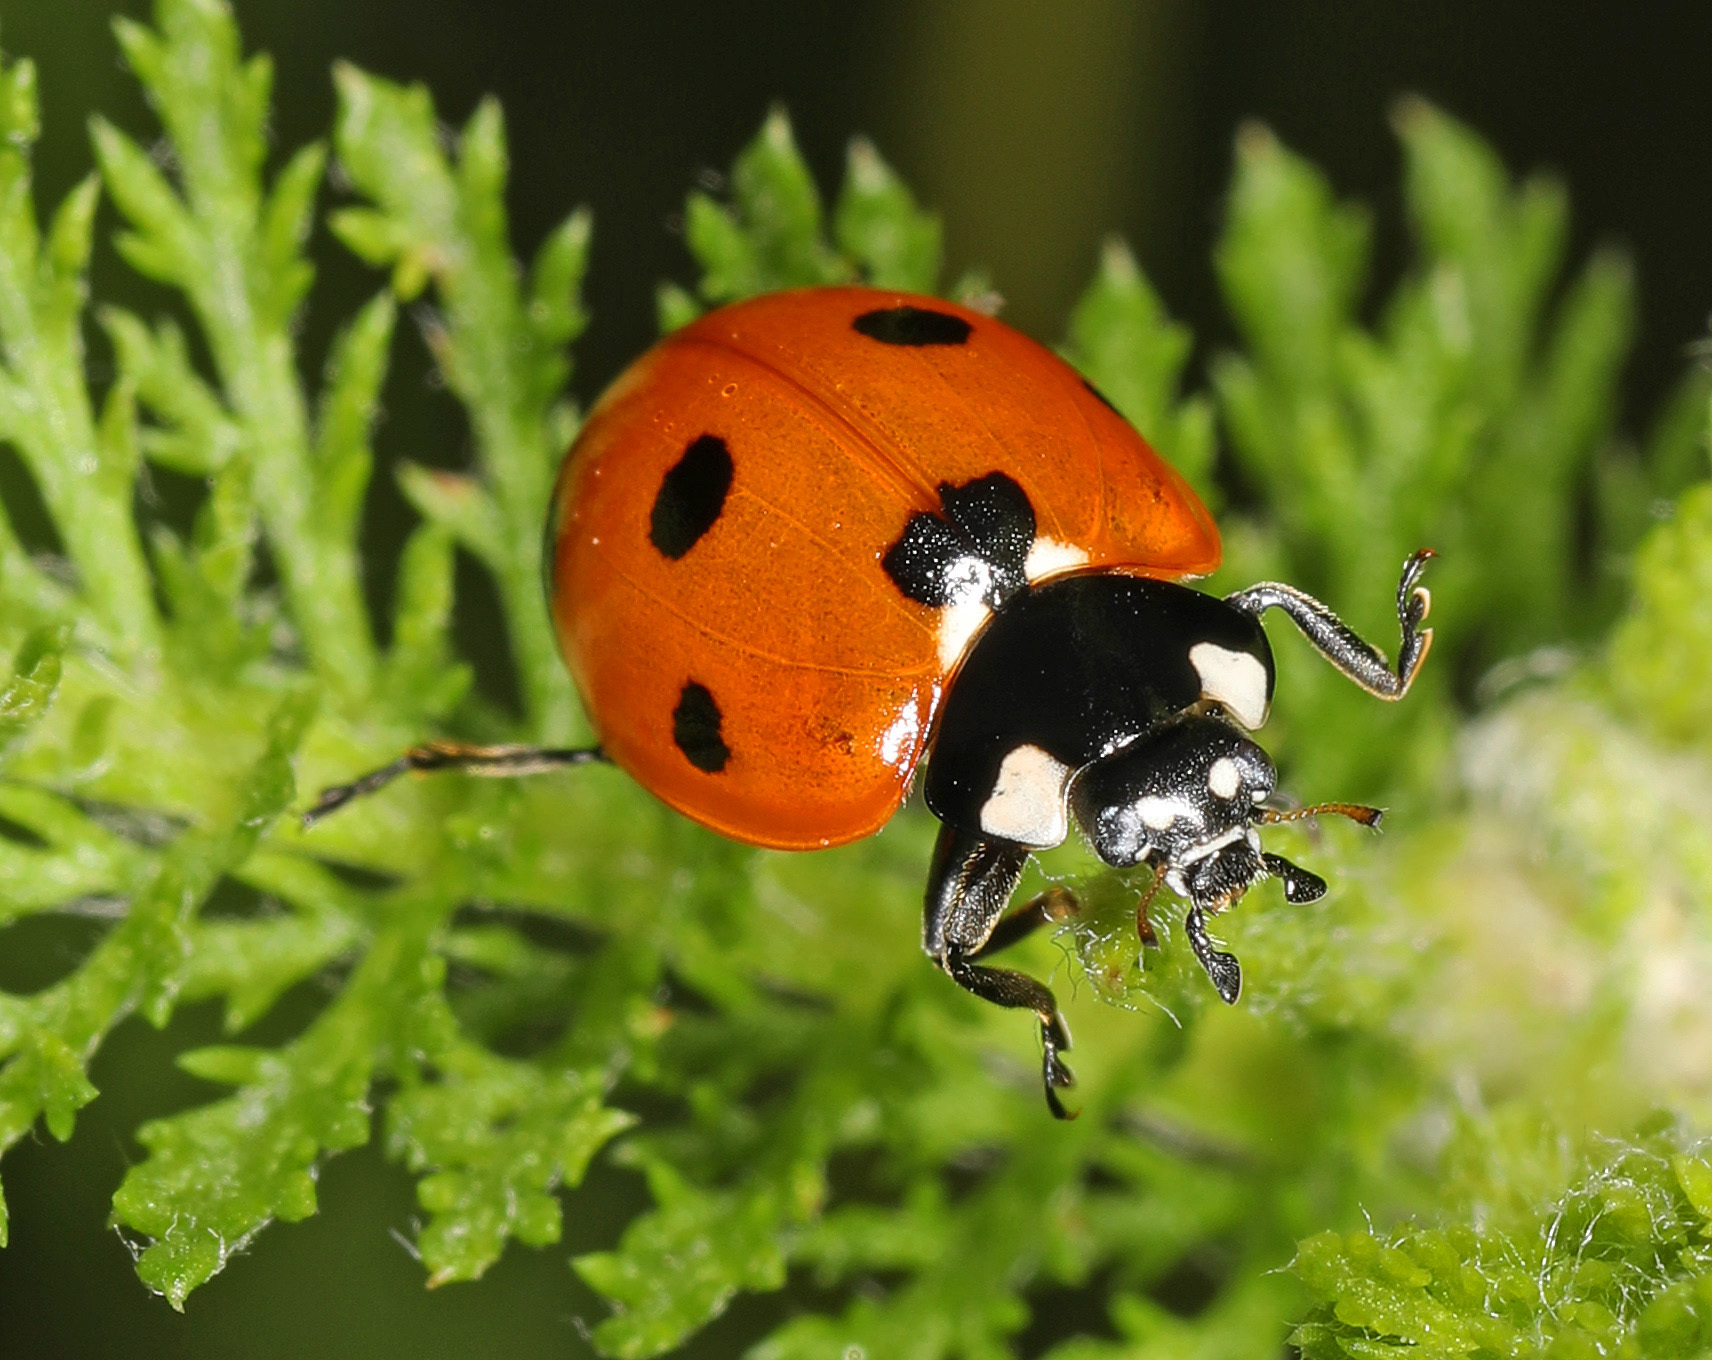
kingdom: Animalia
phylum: Arthropoda
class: Insecta
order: Coleoptera
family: Coccinellidae
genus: Coccinella
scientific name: Coccinella septempunctata
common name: Sevenspotted lady beetle
